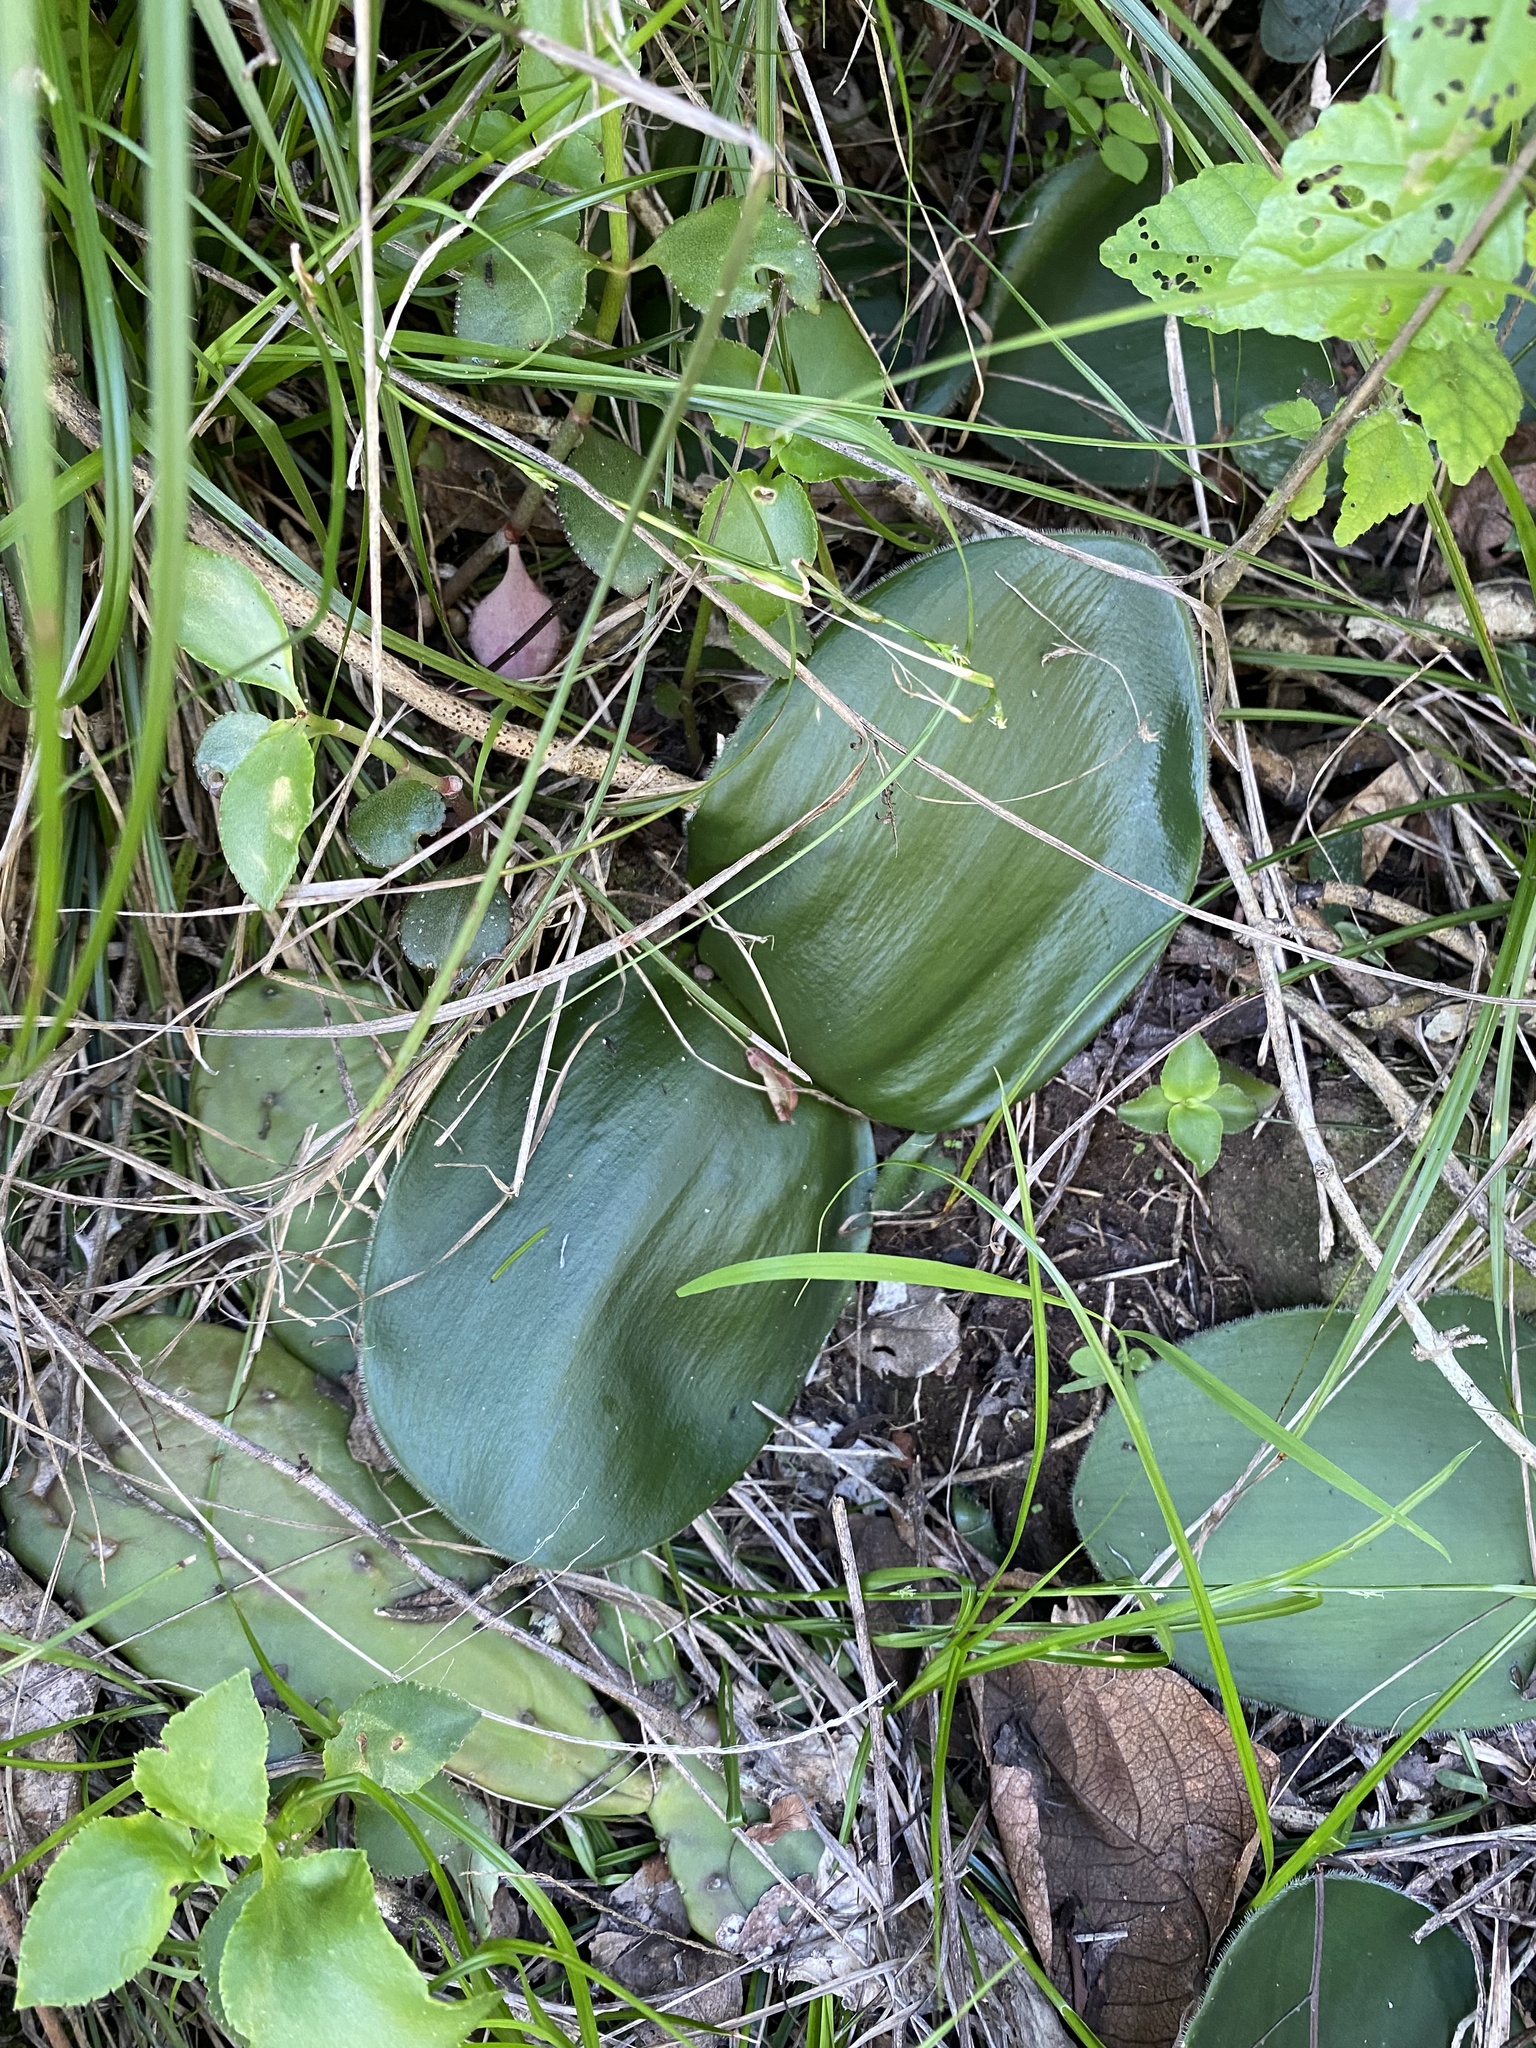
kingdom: Plantae
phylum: Tracheophyta
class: Liliopsida
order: Asparagales
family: Amaryllidaceae
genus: Haemanthus
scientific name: Haemanthus deformis
